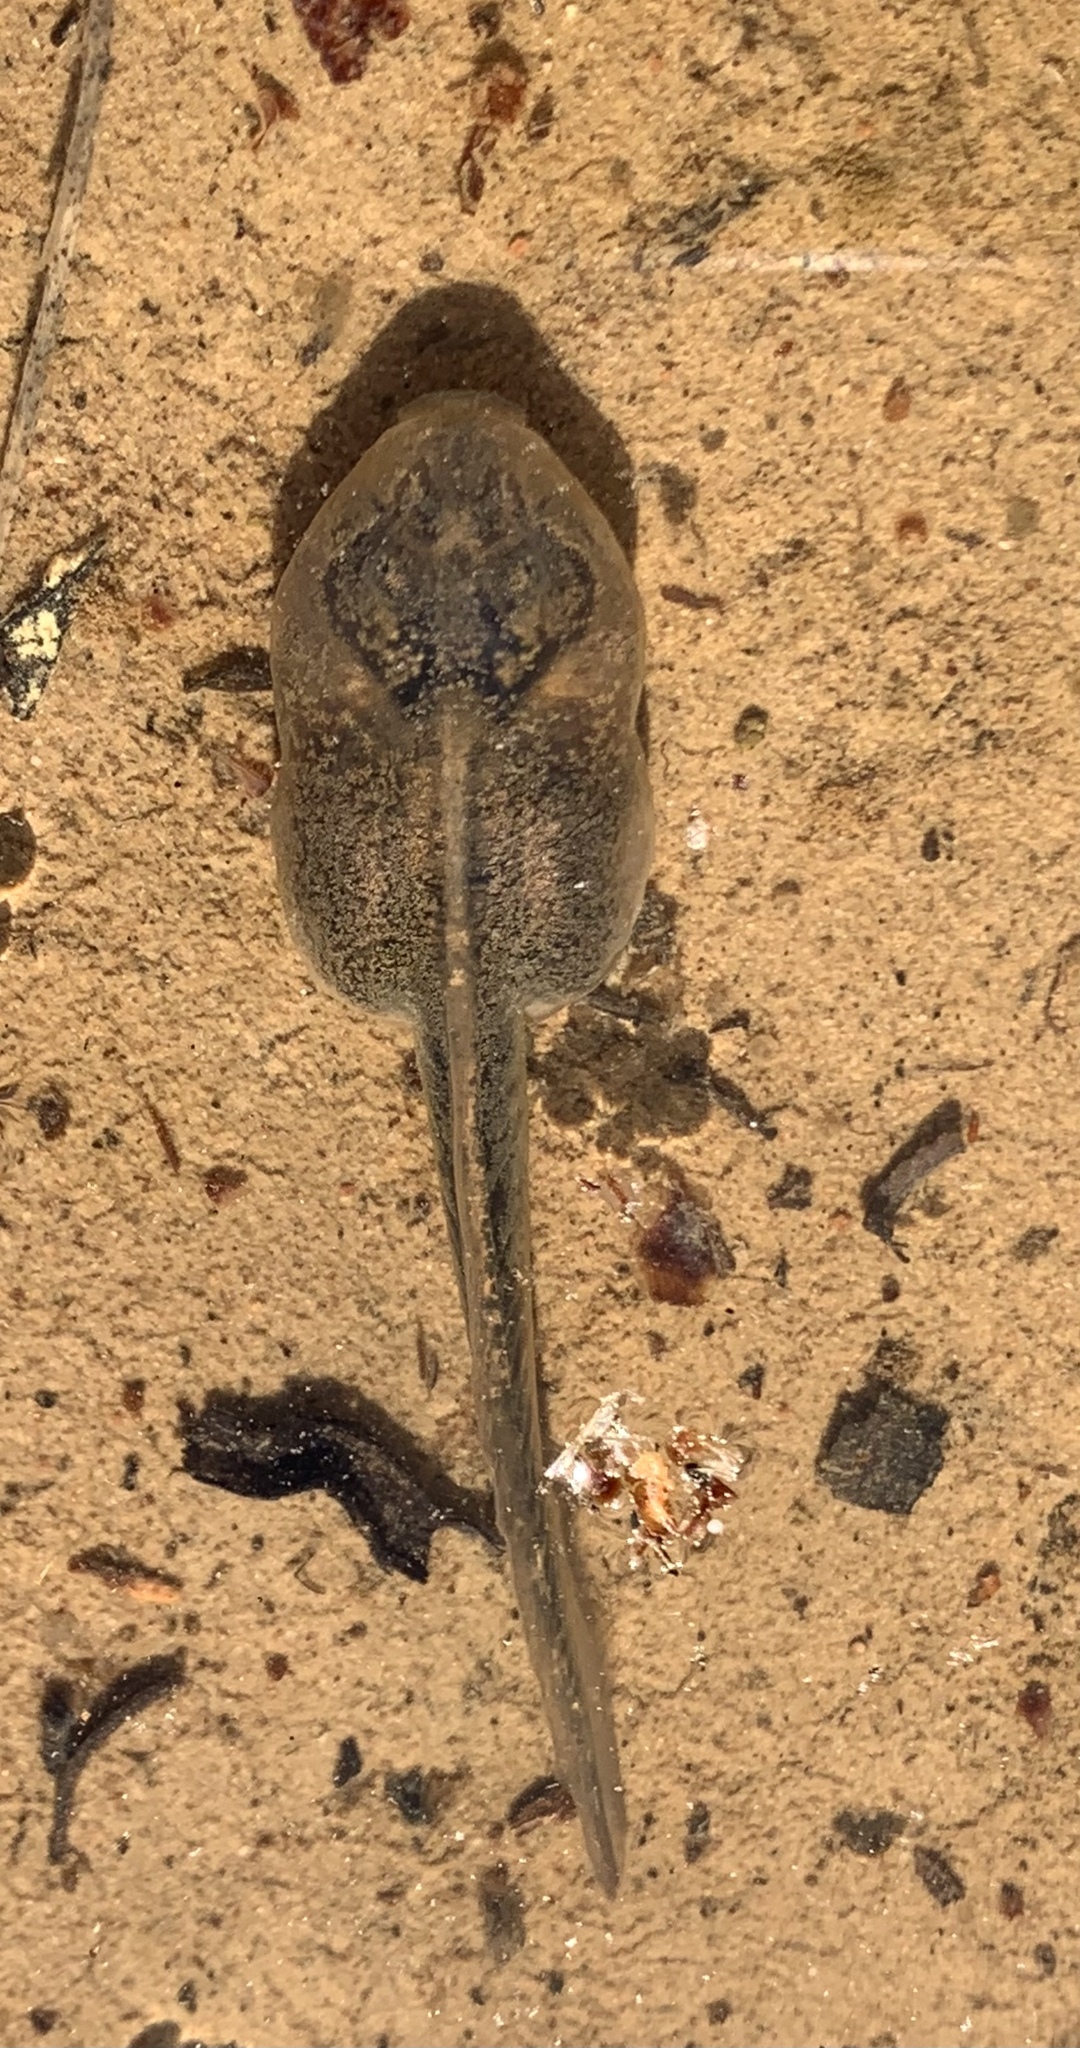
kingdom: Animalia
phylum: Chordata
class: Amphibia
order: Anura
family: Scaphiopodidae
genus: Spea
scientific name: Spea intermontana
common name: Great basin spadefoot
